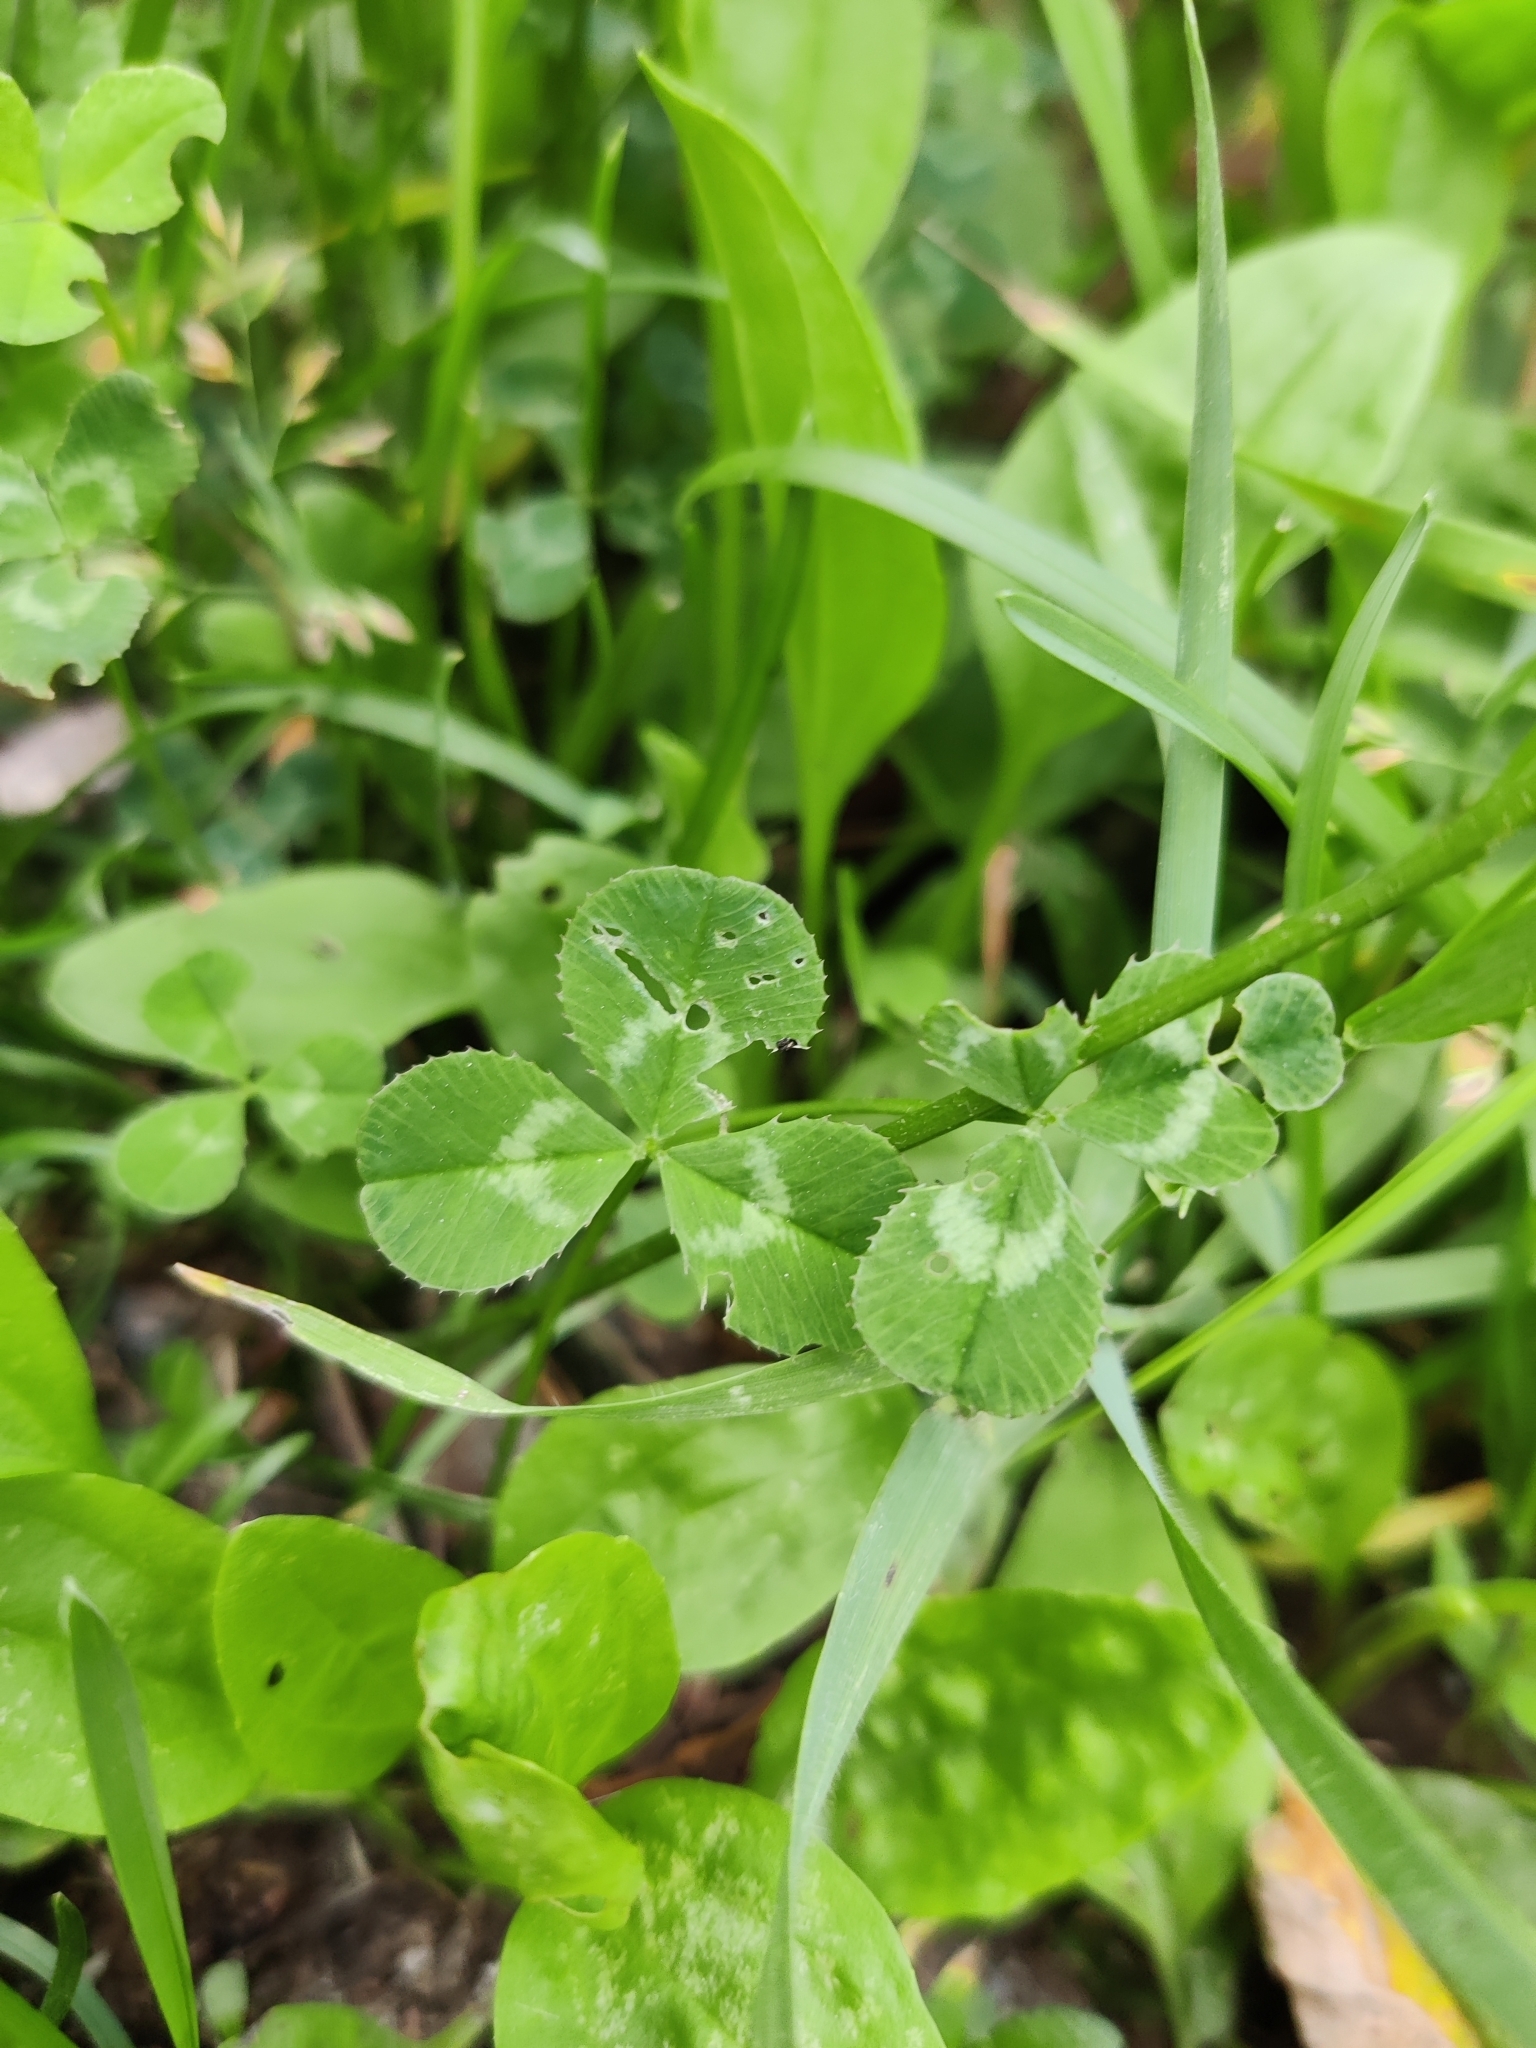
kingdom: Plantae
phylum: Tracheophyta
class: Magnoliopsida
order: Fabales
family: Fabaceae
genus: Trifolium
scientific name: Trifolium repens
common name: White clover
